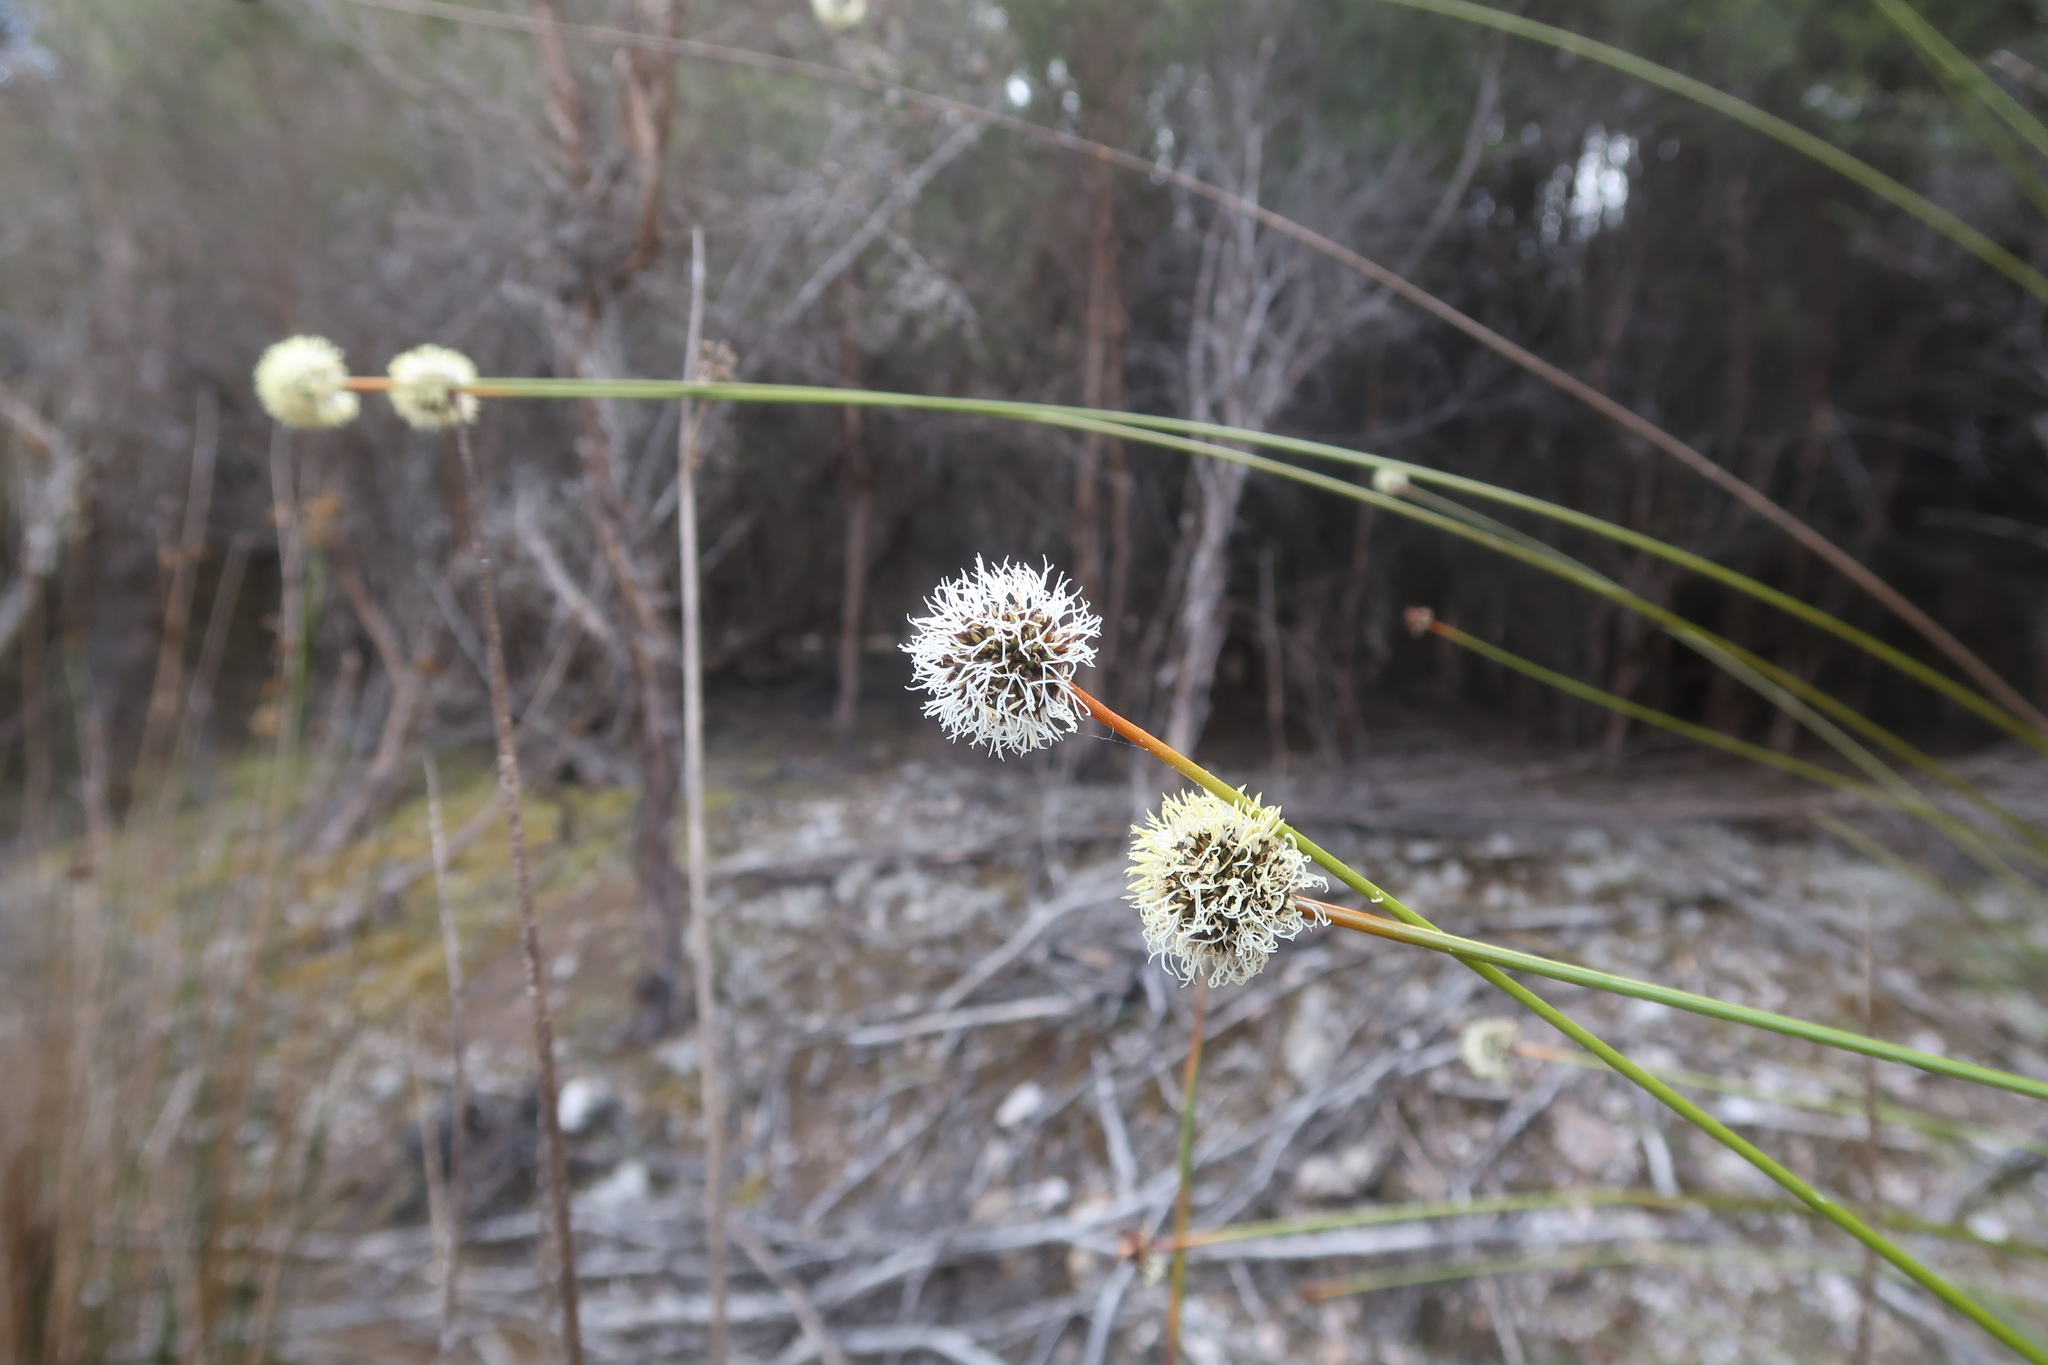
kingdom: Plantae
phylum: Tracheophyta
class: Liliopsida
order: Poales
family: Cyperaceae
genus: Gymnoschoenus
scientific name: Gymnoschoenus sphaerocephalus
